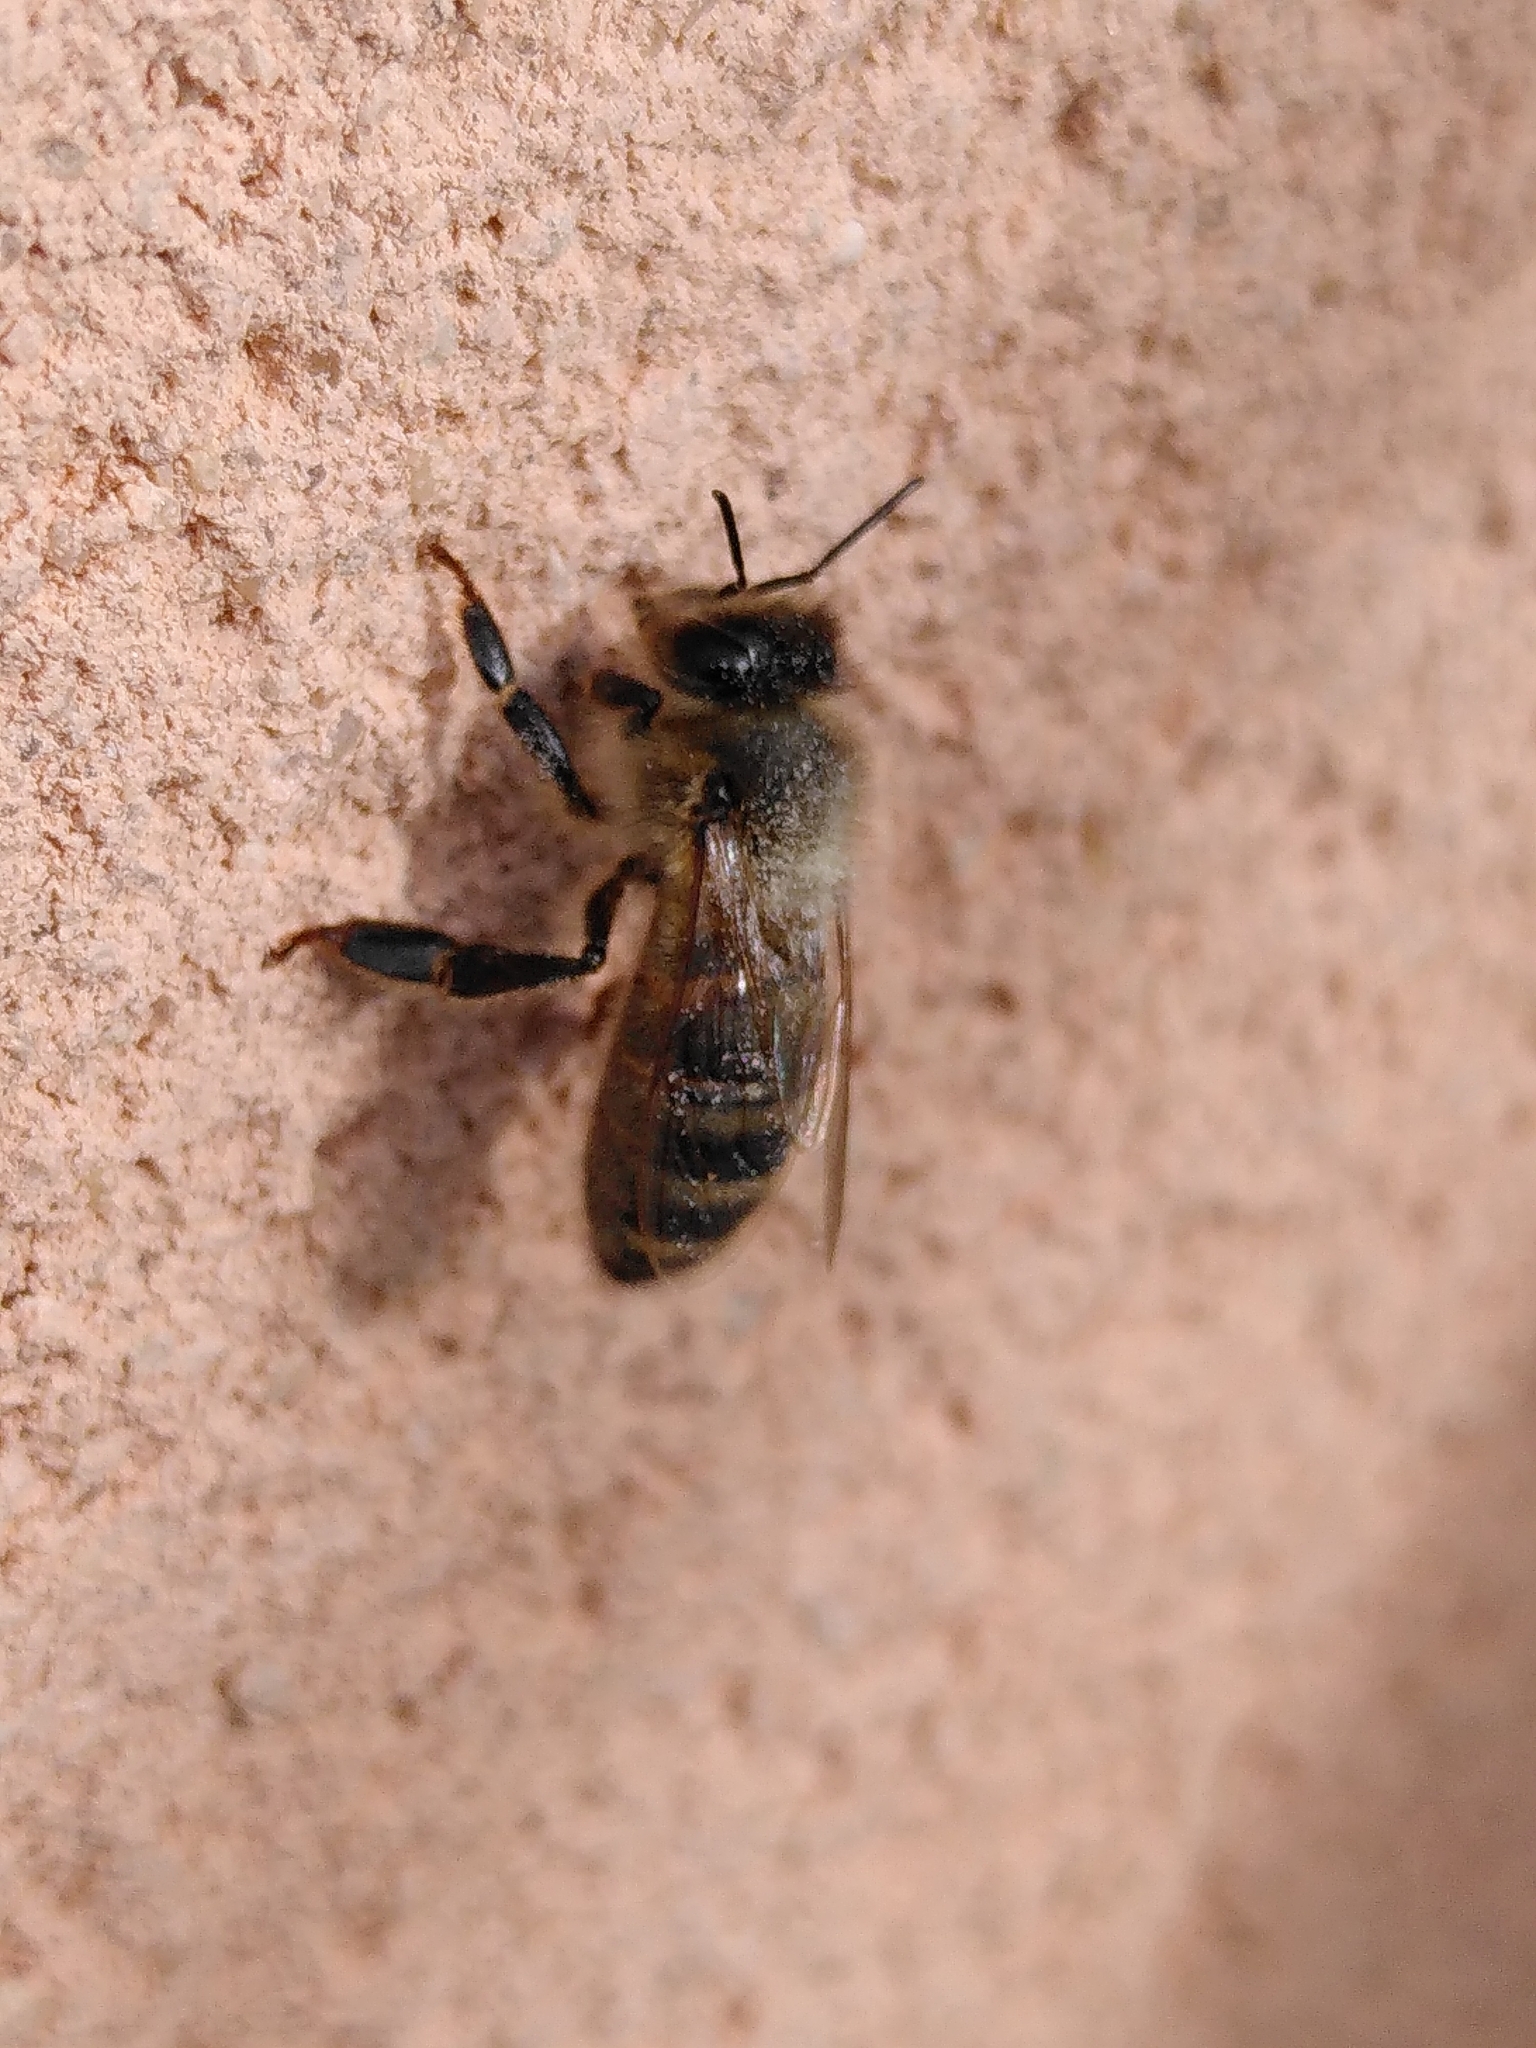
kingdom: Animalia
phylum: Arthropoda
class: Insecta
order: Hymenoptera
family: Apidae
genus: Apis
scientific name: Apis mellifera
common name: Honey bee
